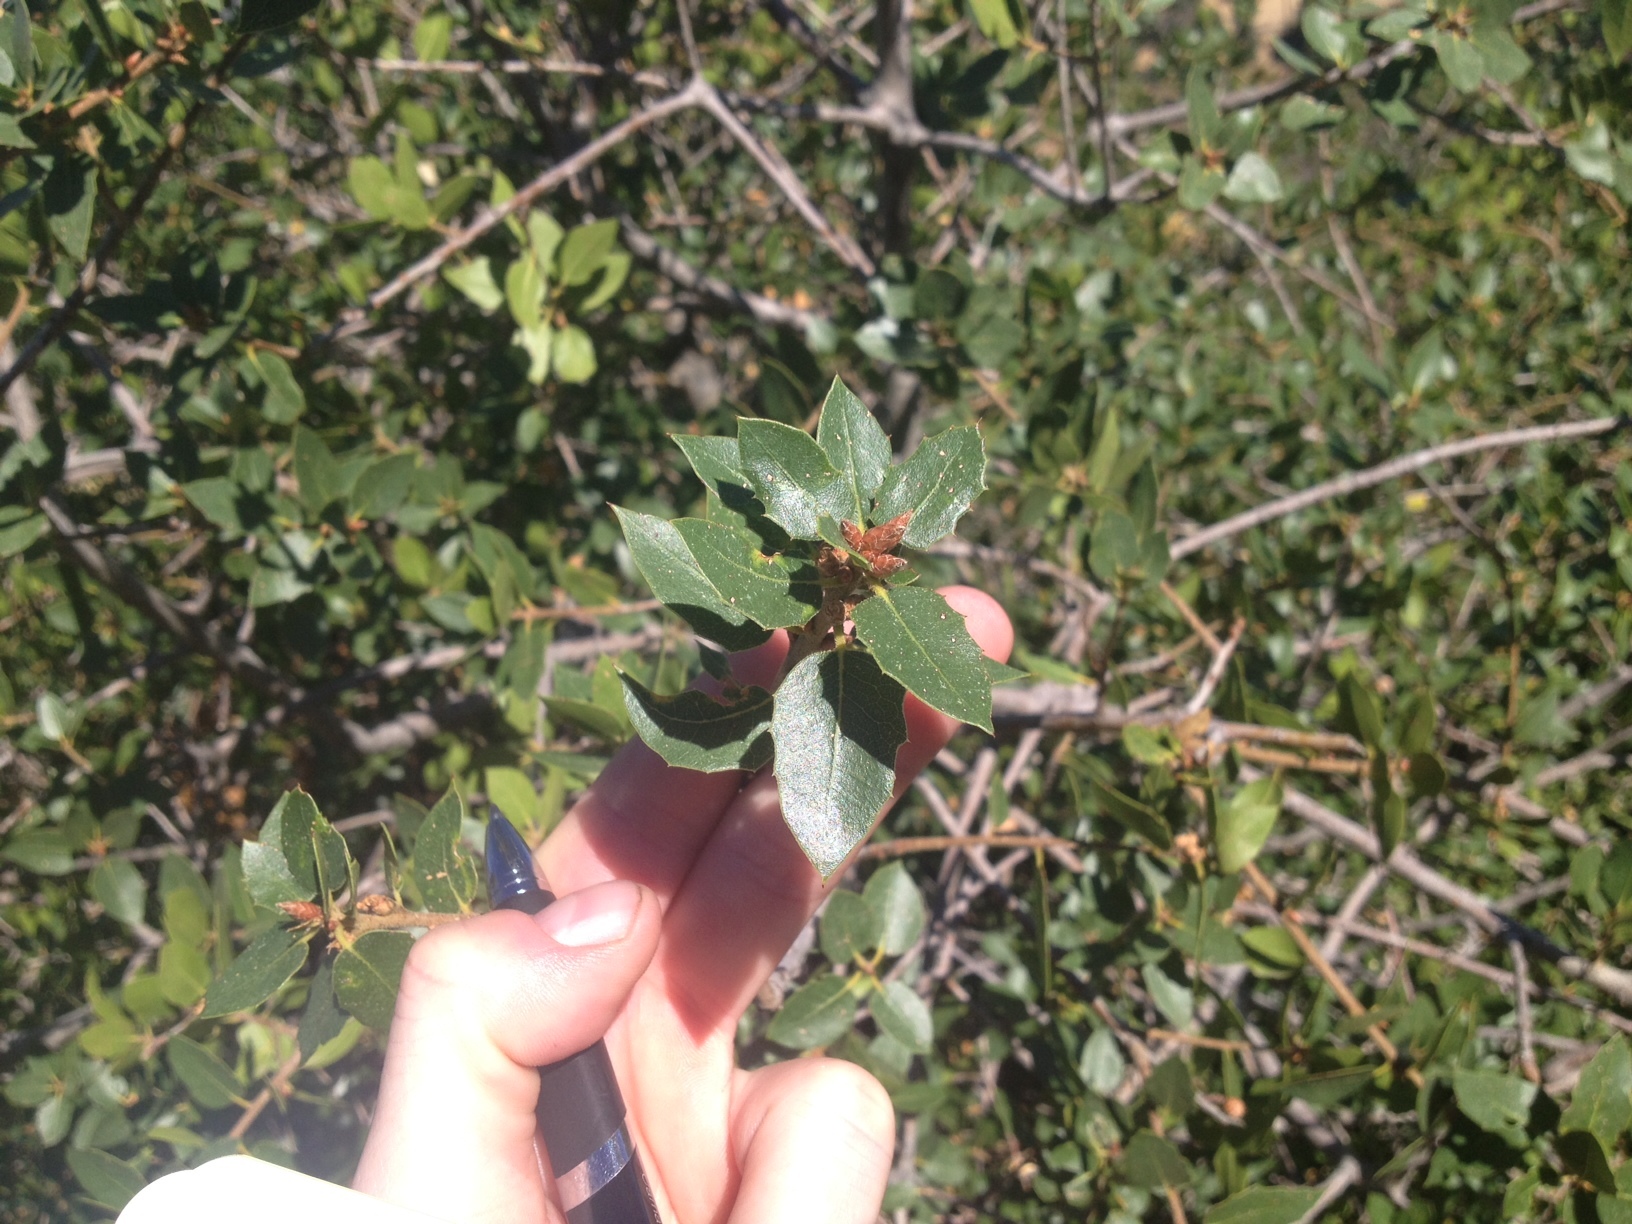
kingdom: Plantae
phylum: Tracheophyta
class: Magnoliopsida
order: Fagales
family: Fagaceae
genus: Quercus
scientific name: Quercus wislizeni
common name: Interior live oak
